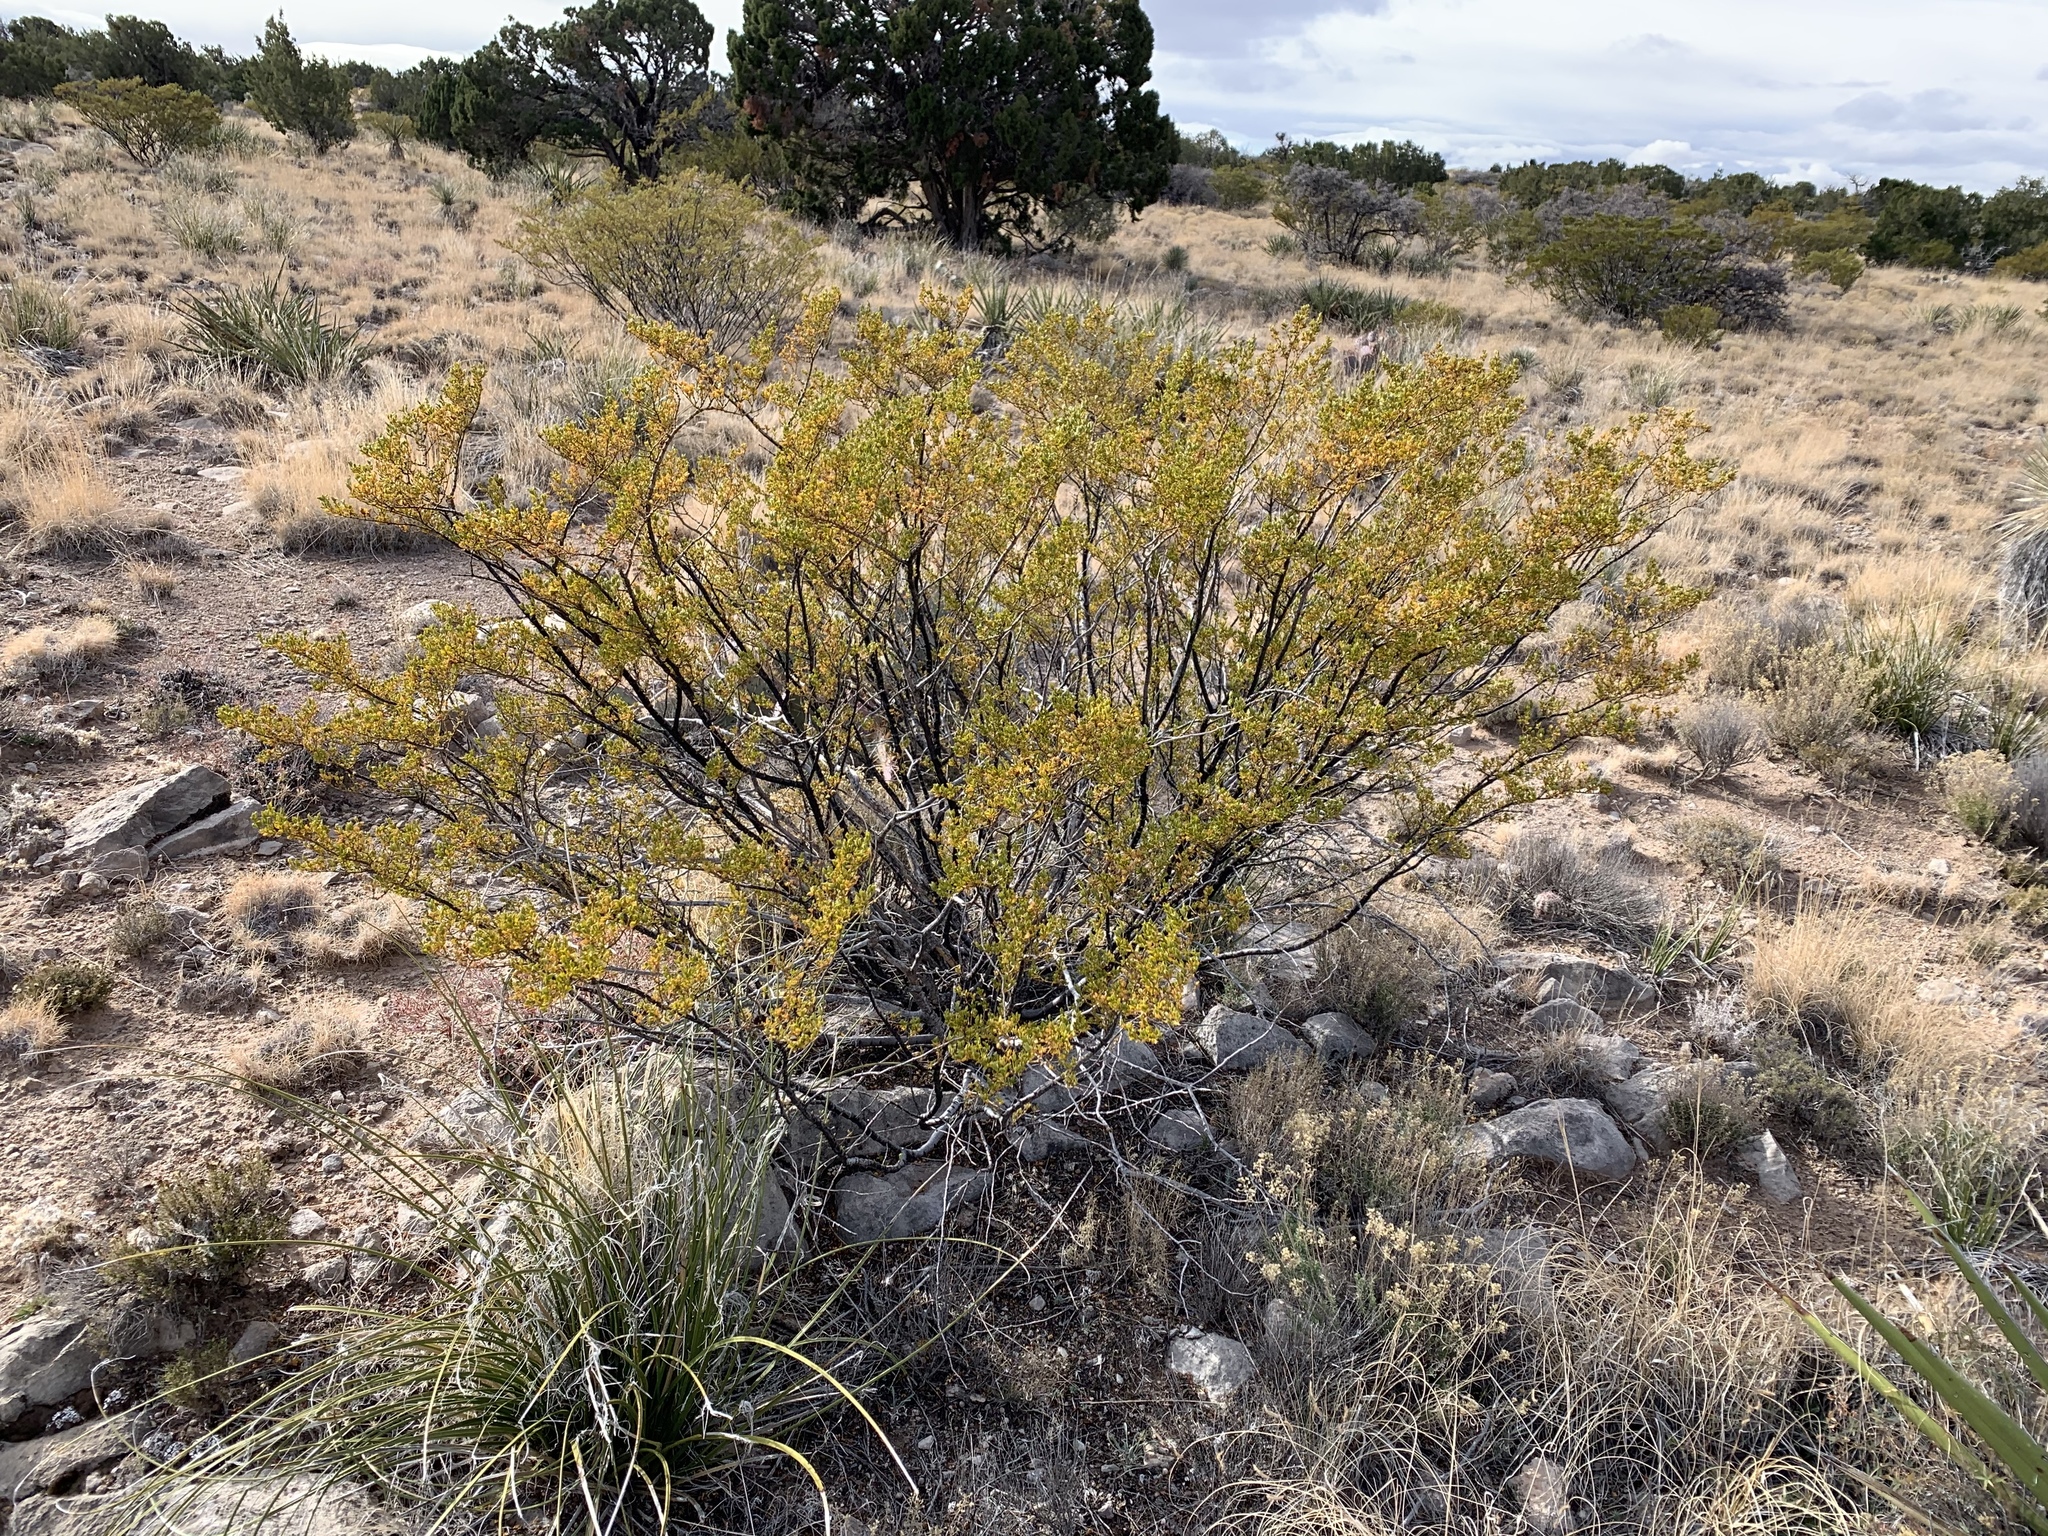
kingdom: Plantae
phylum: Tracheophyta
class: Magnoliopsida
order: Zygophyllales
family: Zygophyllaceae
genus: Larrea
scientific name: Larrea tridentata
